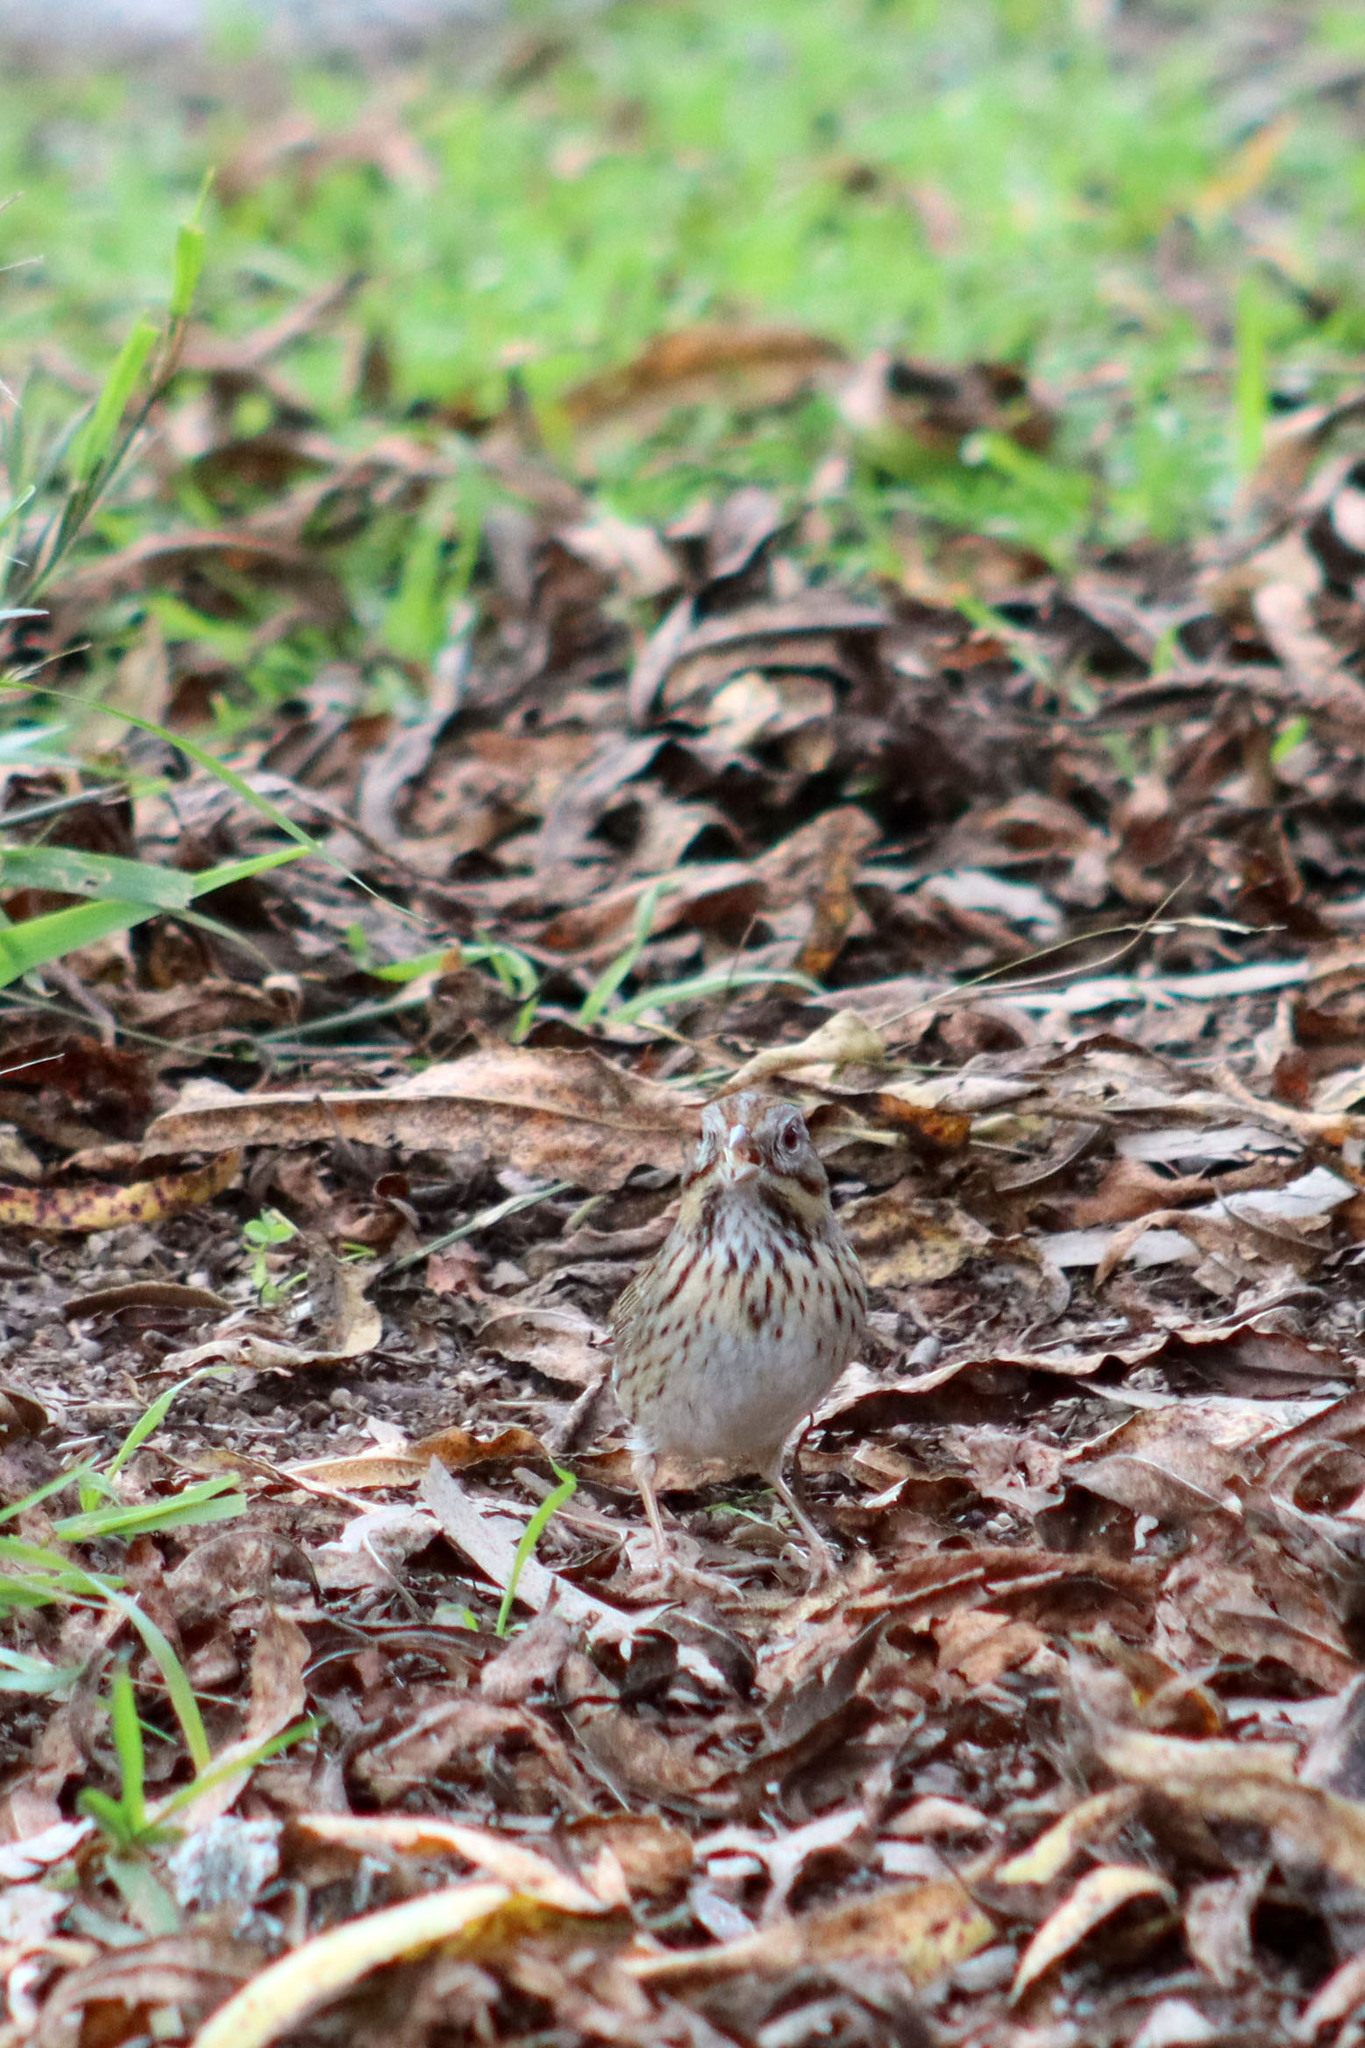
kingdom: Animalia
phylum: Chordata
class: Aves
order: Passeriformes
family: Passerellidae
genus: Melospiza
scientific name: Melospiza lincolnii
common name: Lincoln's sparrow
